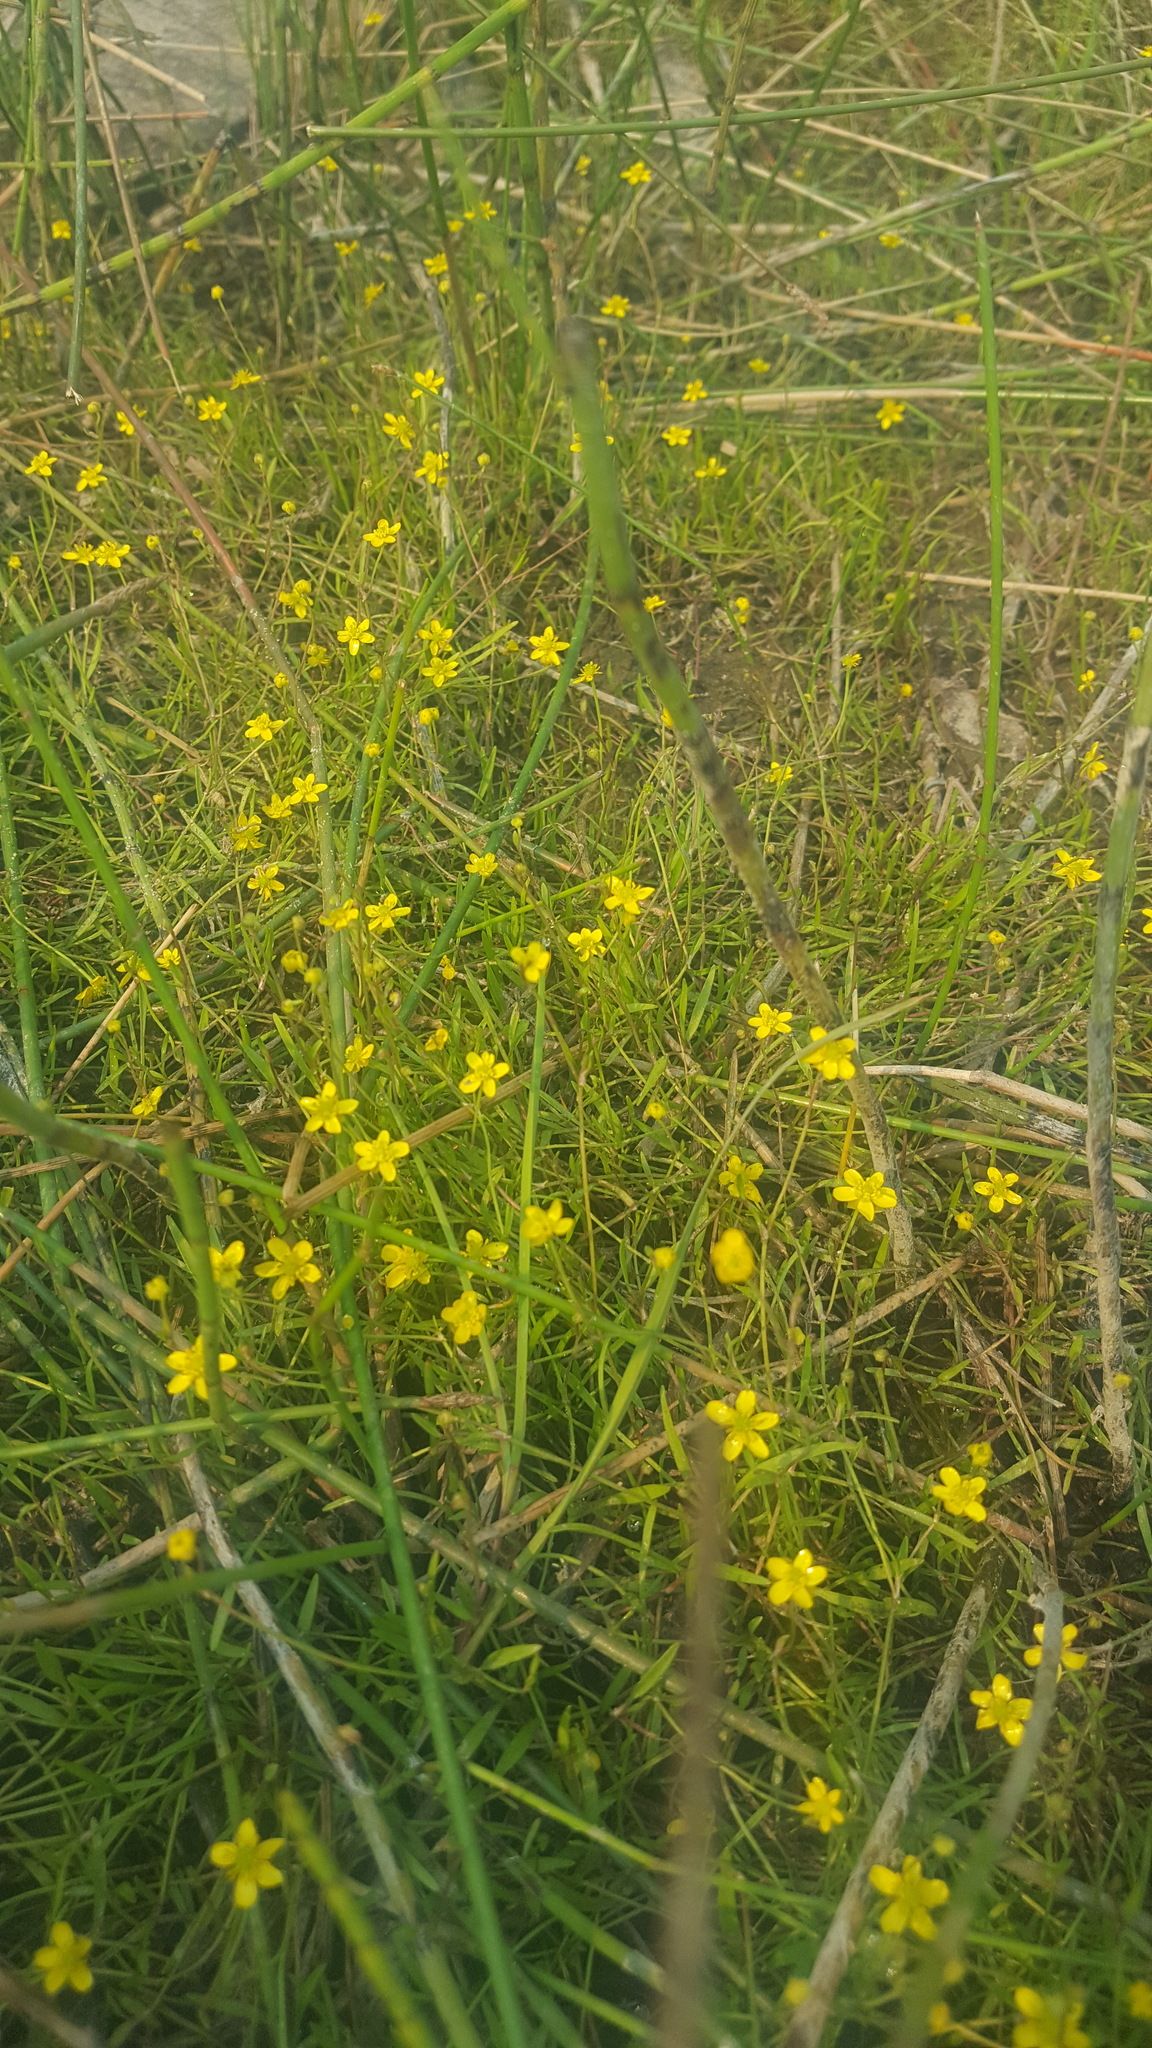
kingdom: Plantae
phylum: Tracheophyta
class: Magnoliopsida
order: Ranunculales
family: Ranunculaceae
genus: Ranunculus
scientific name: Ranunculus flammula
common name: Lesser spearwort
